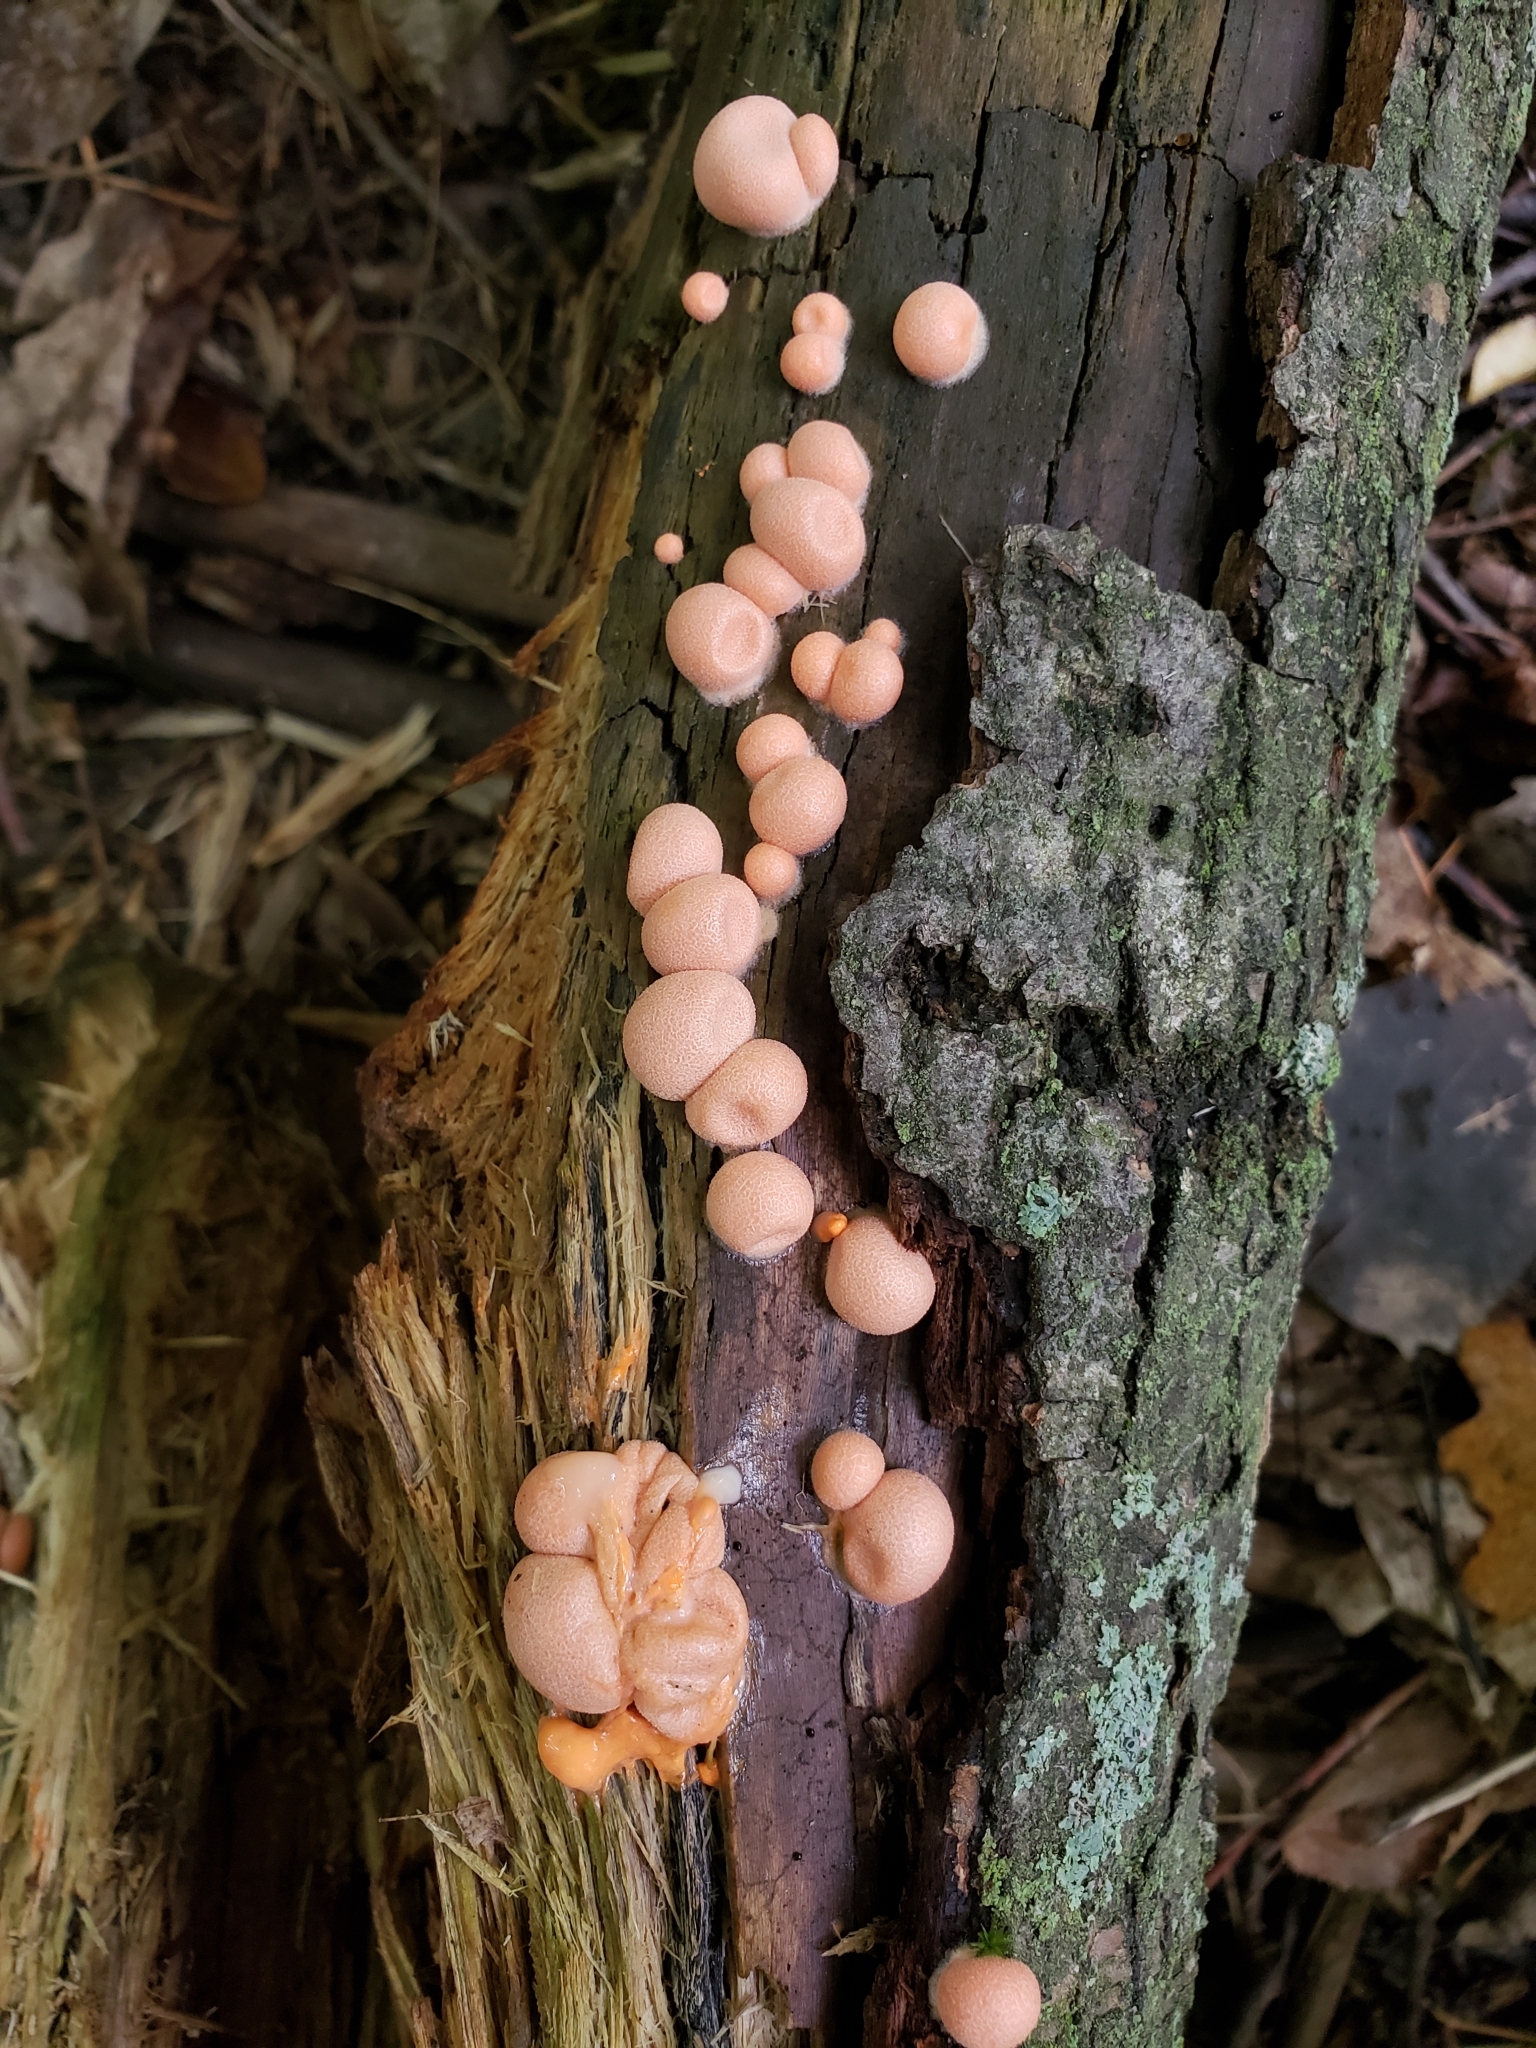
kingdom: Protozoa
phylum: Mycetozoa
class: Myxomycetes
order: Cribrariales
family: Tubiferaceae
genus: Lycogala
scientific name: Lycogala epidendrum
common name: Wolf's milk
